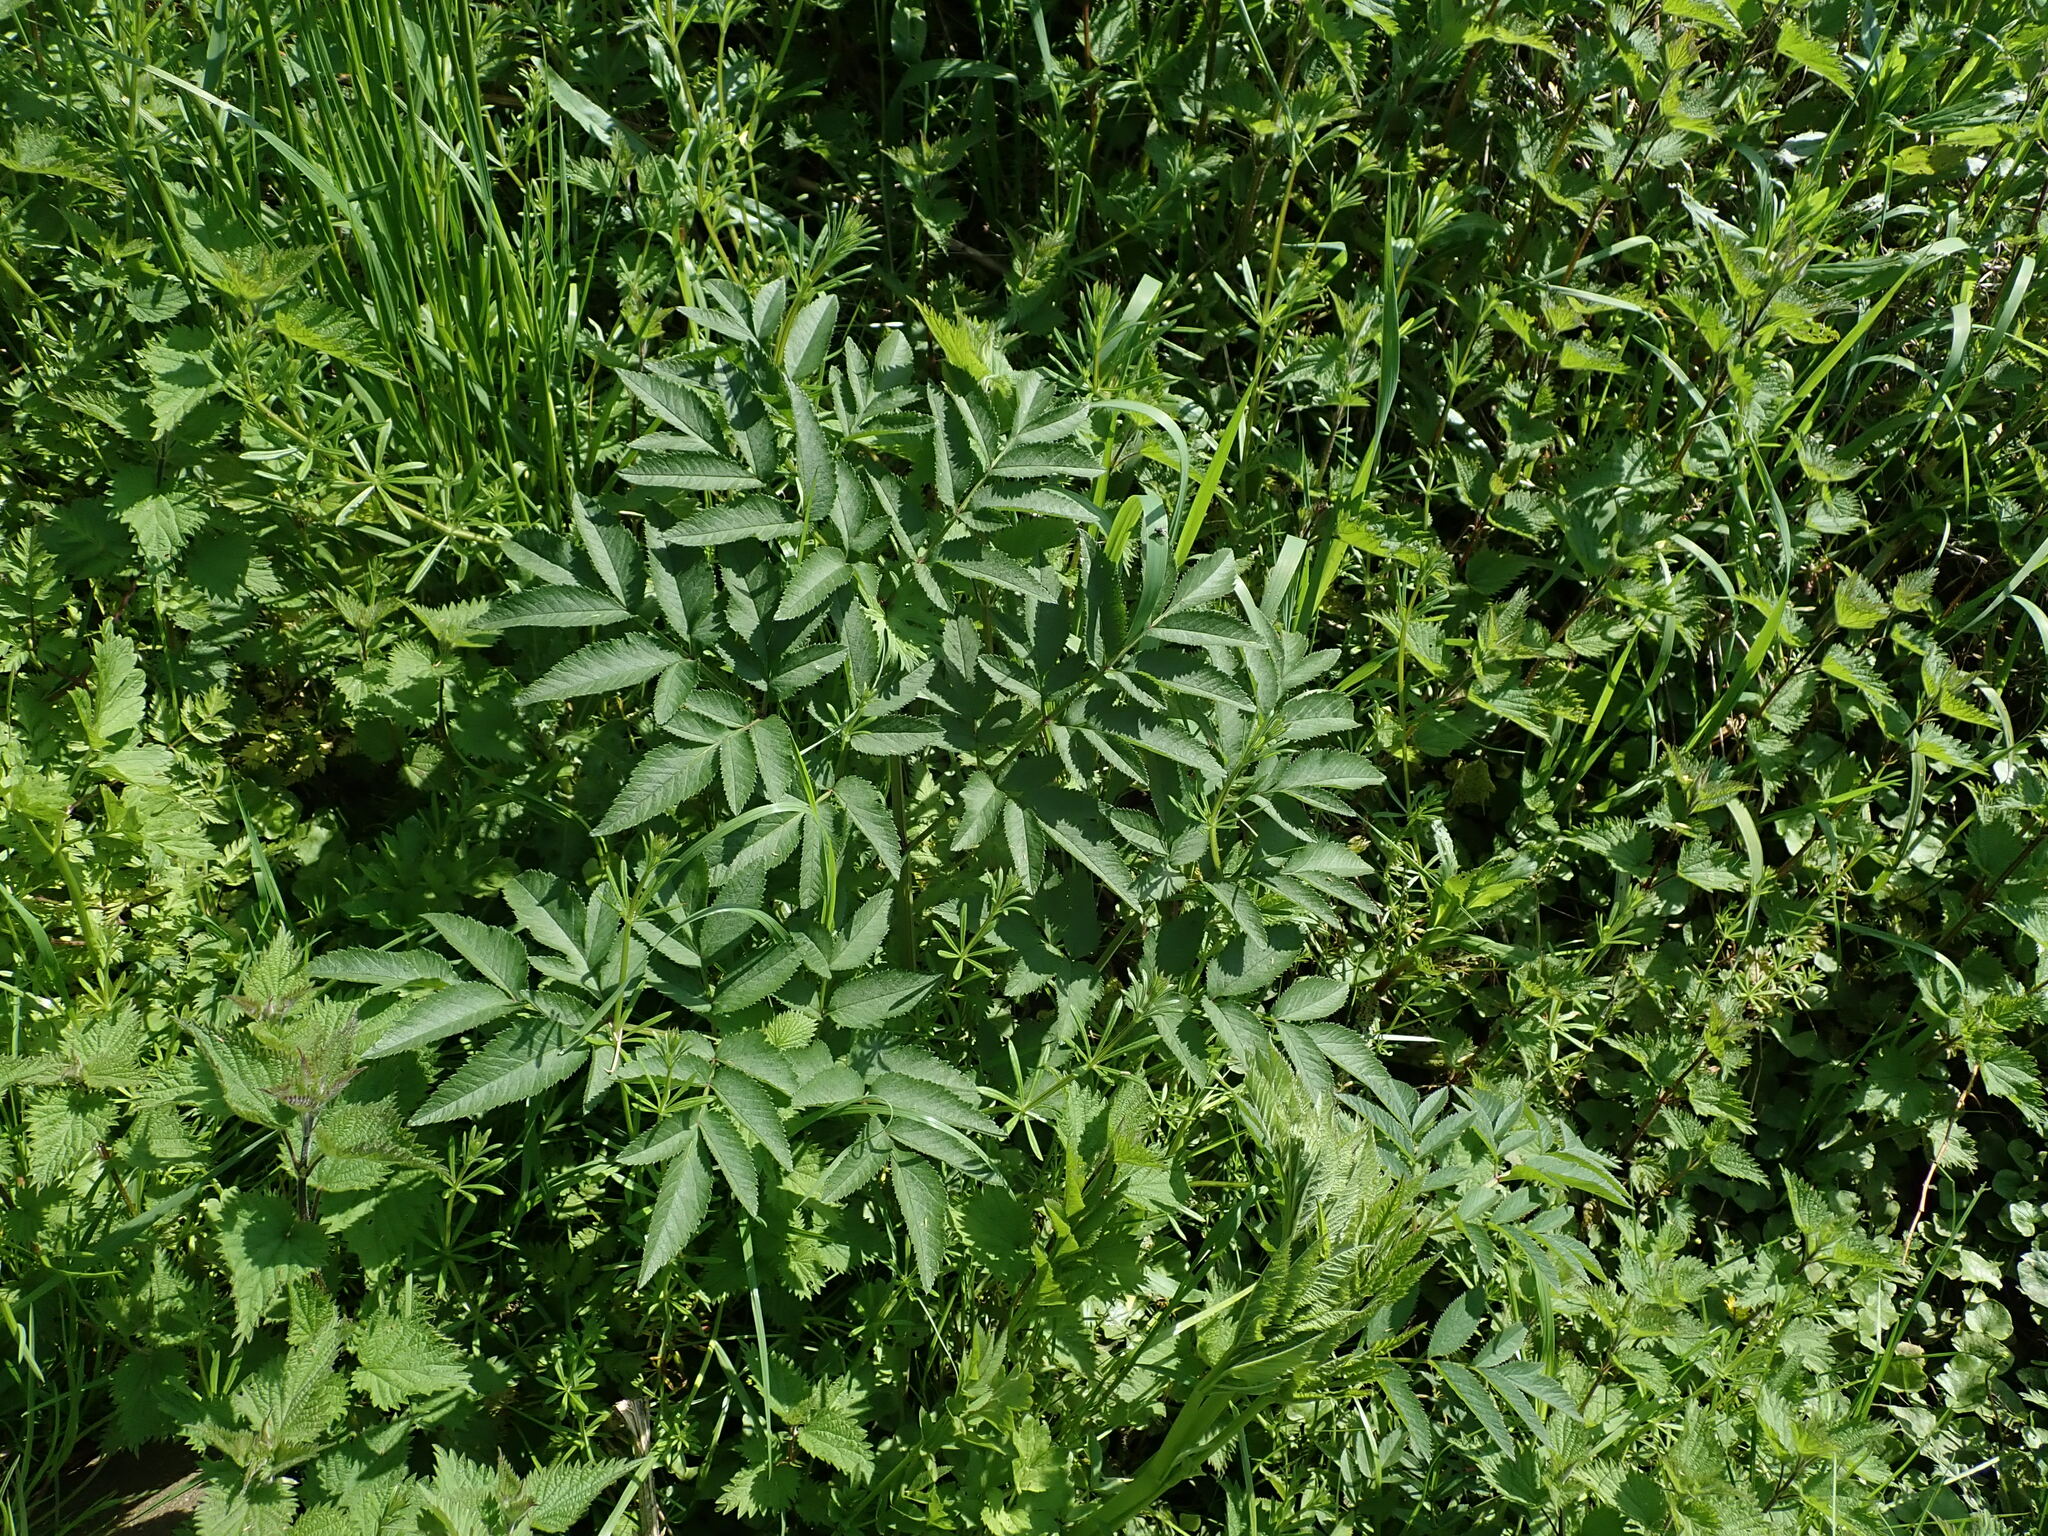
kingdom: Plantae
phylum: Tracheophyta
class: Magnoliopsida
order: Apiales
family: Apiaceae
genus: Angelica
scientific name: Angelica sylvestris
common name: Wild angelica
